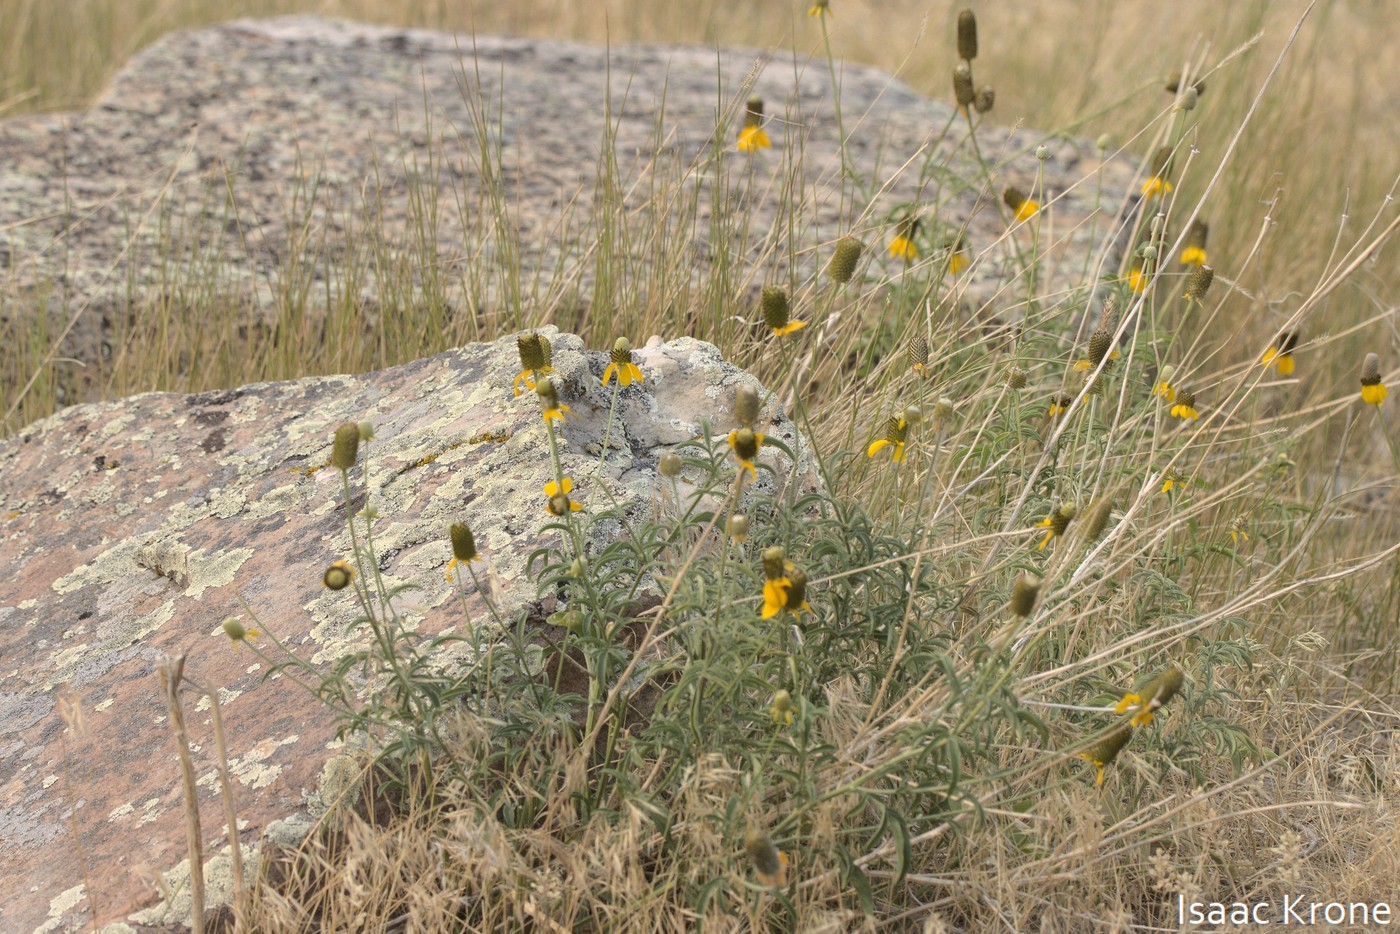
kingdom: Plantae
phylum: Tracheophyta
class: Magnoliopsida
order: Asterales
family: Asteraceae
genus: Ratibida
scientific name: Ratibida columnifera
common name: Prairie coneflower
